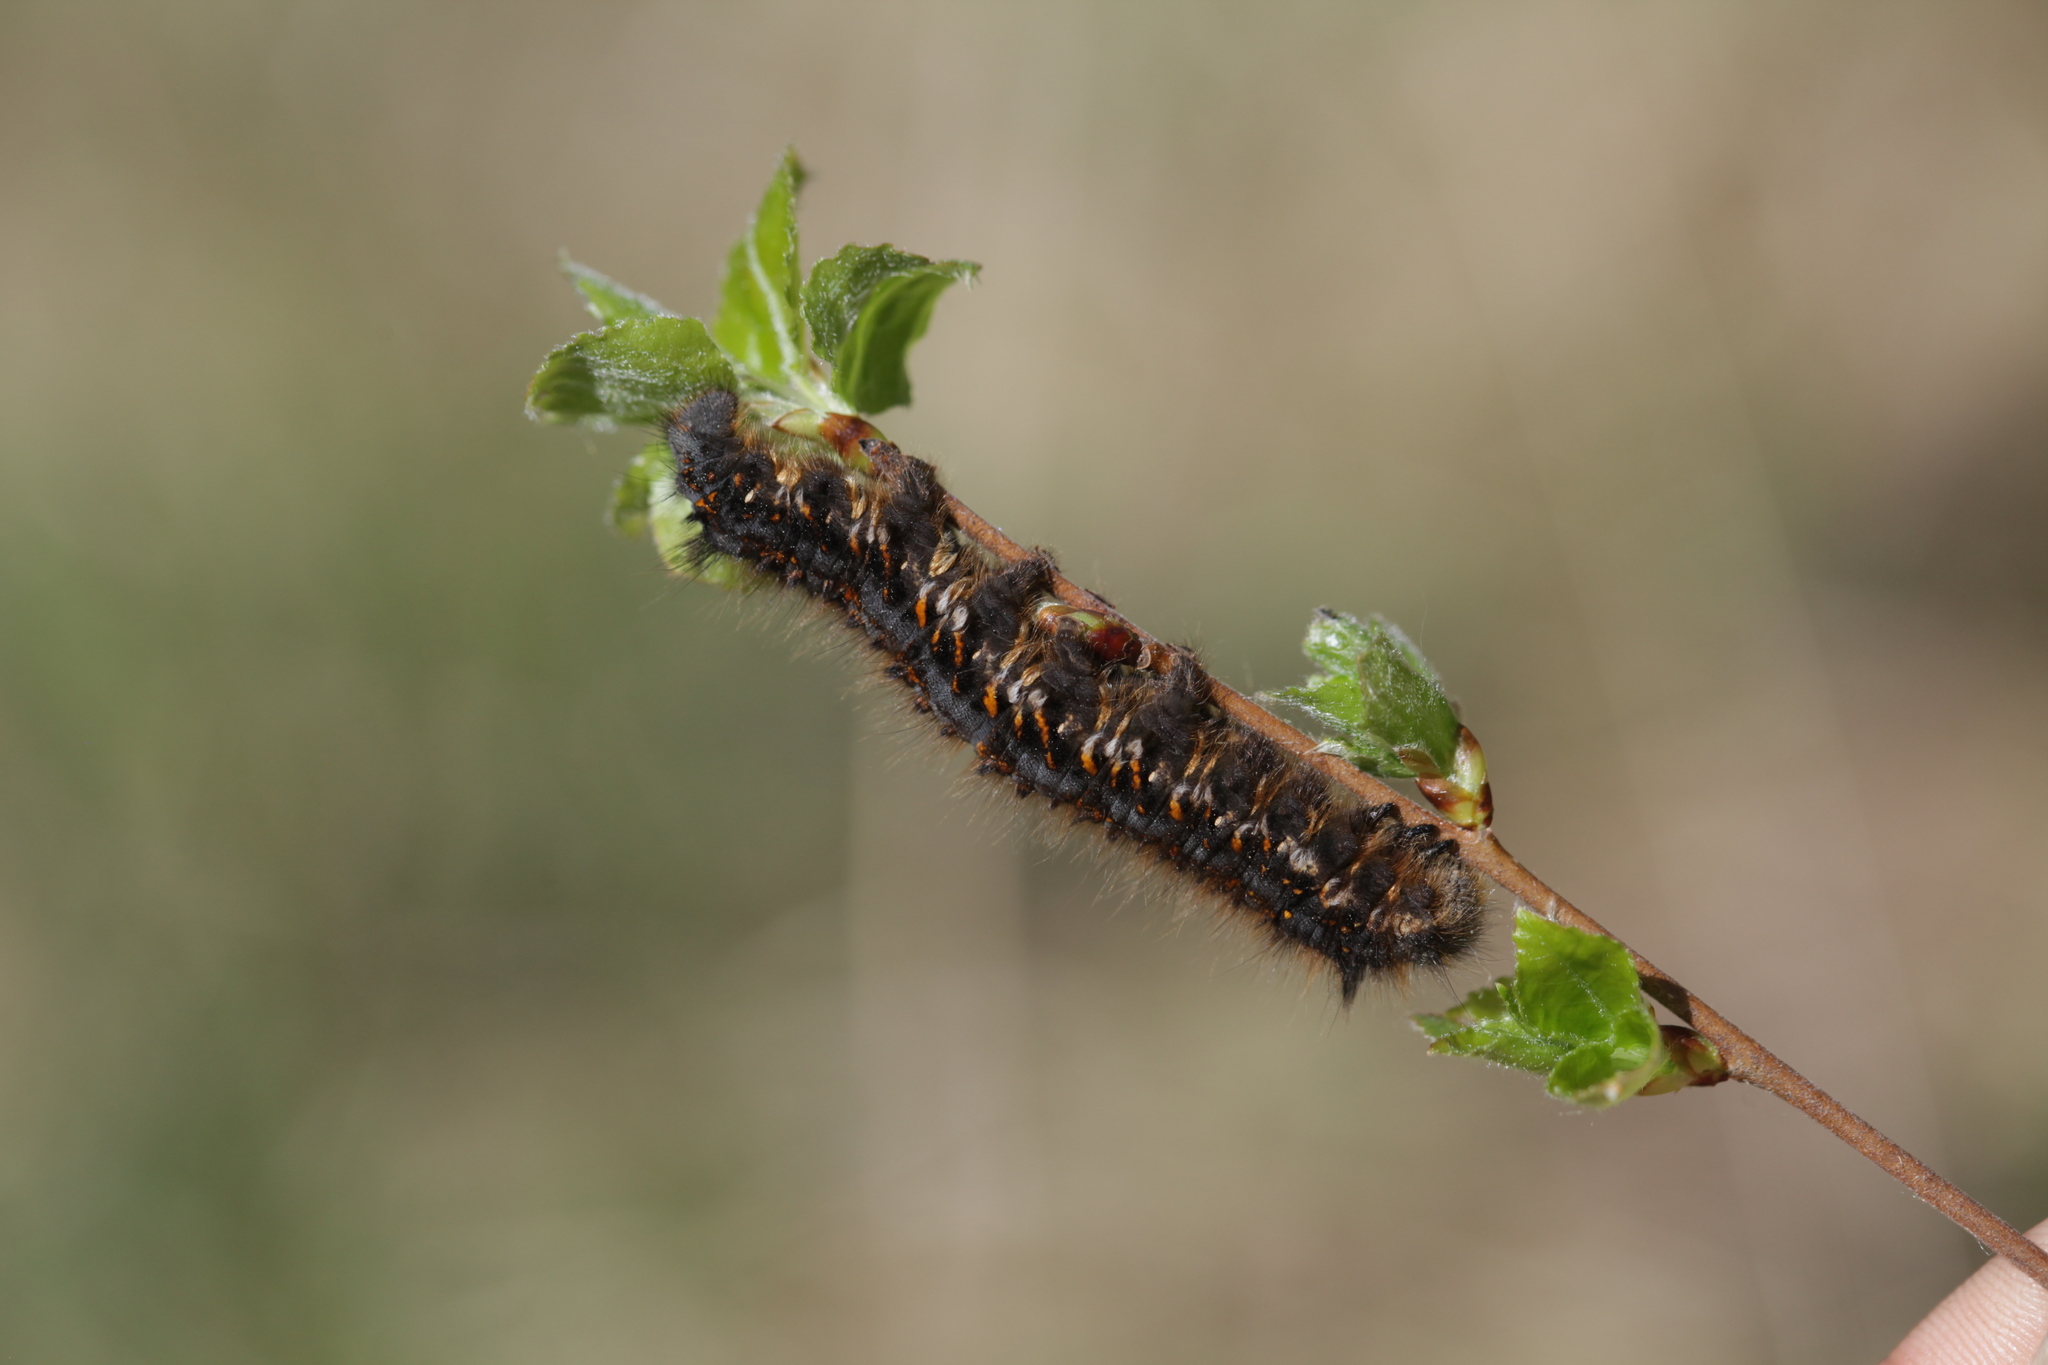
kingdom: Animalia
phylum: Arthropoda
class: Insecta
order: Lepidoptera
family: Lasiocampidae
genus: Euthrix
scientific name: Euthrix potatoria
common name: Drinker
